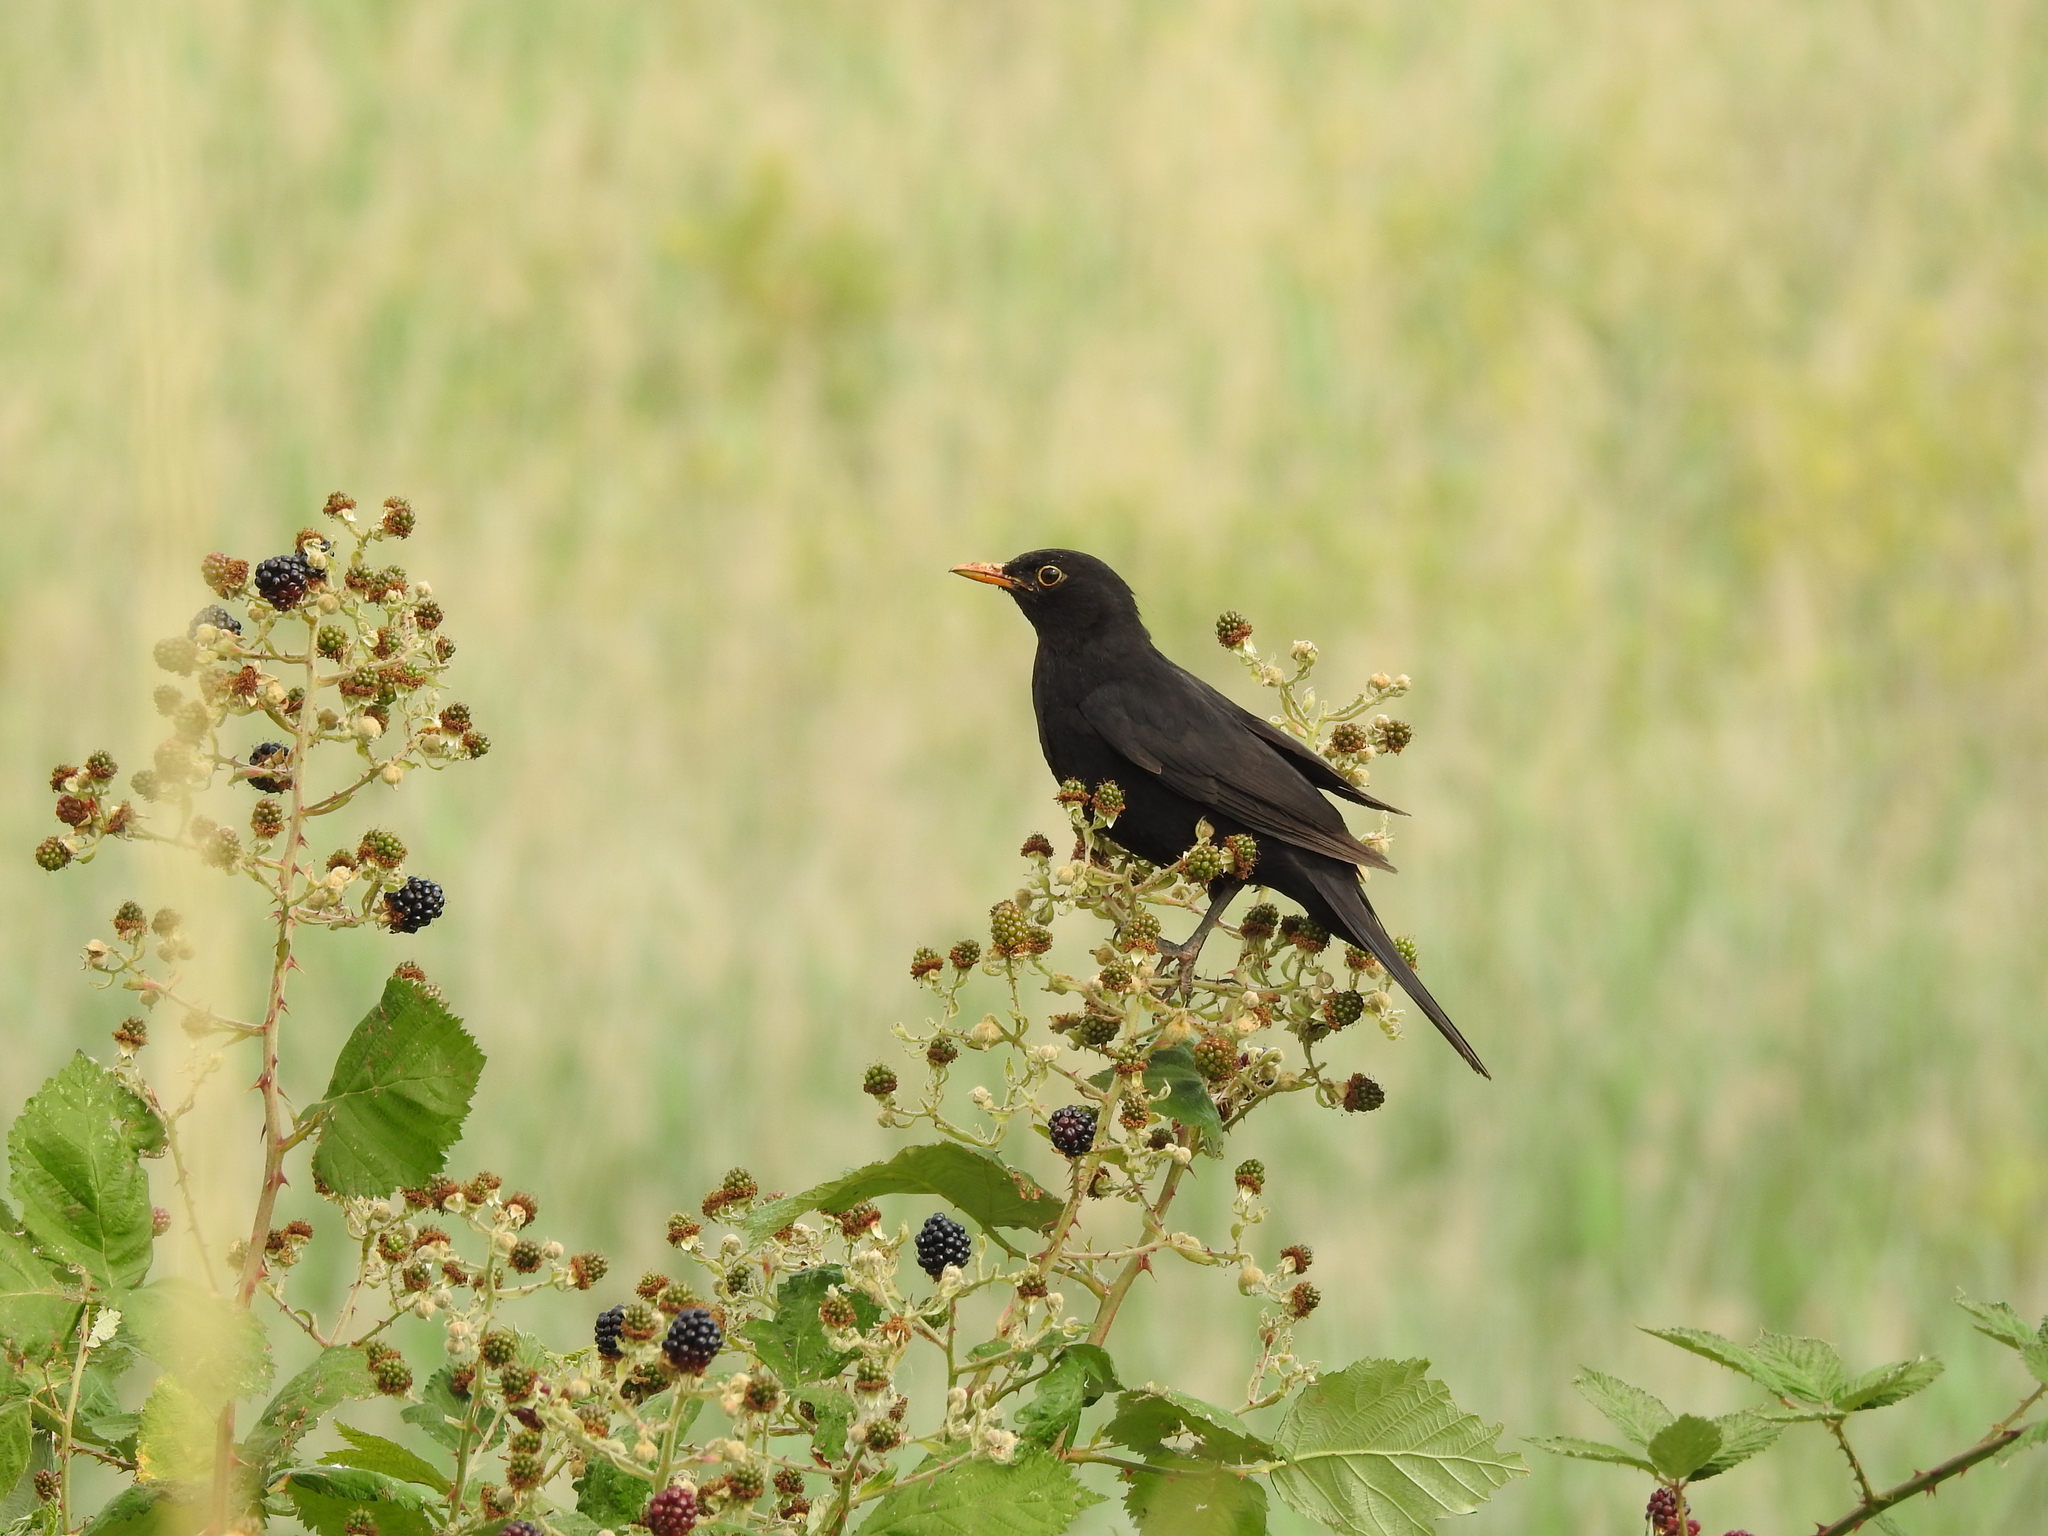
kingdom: Animalia
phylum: Chordata
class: Aves
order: Passeriformes
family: Turdidae
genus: Turdus
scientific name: Turdus merula
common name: Common blackbird
